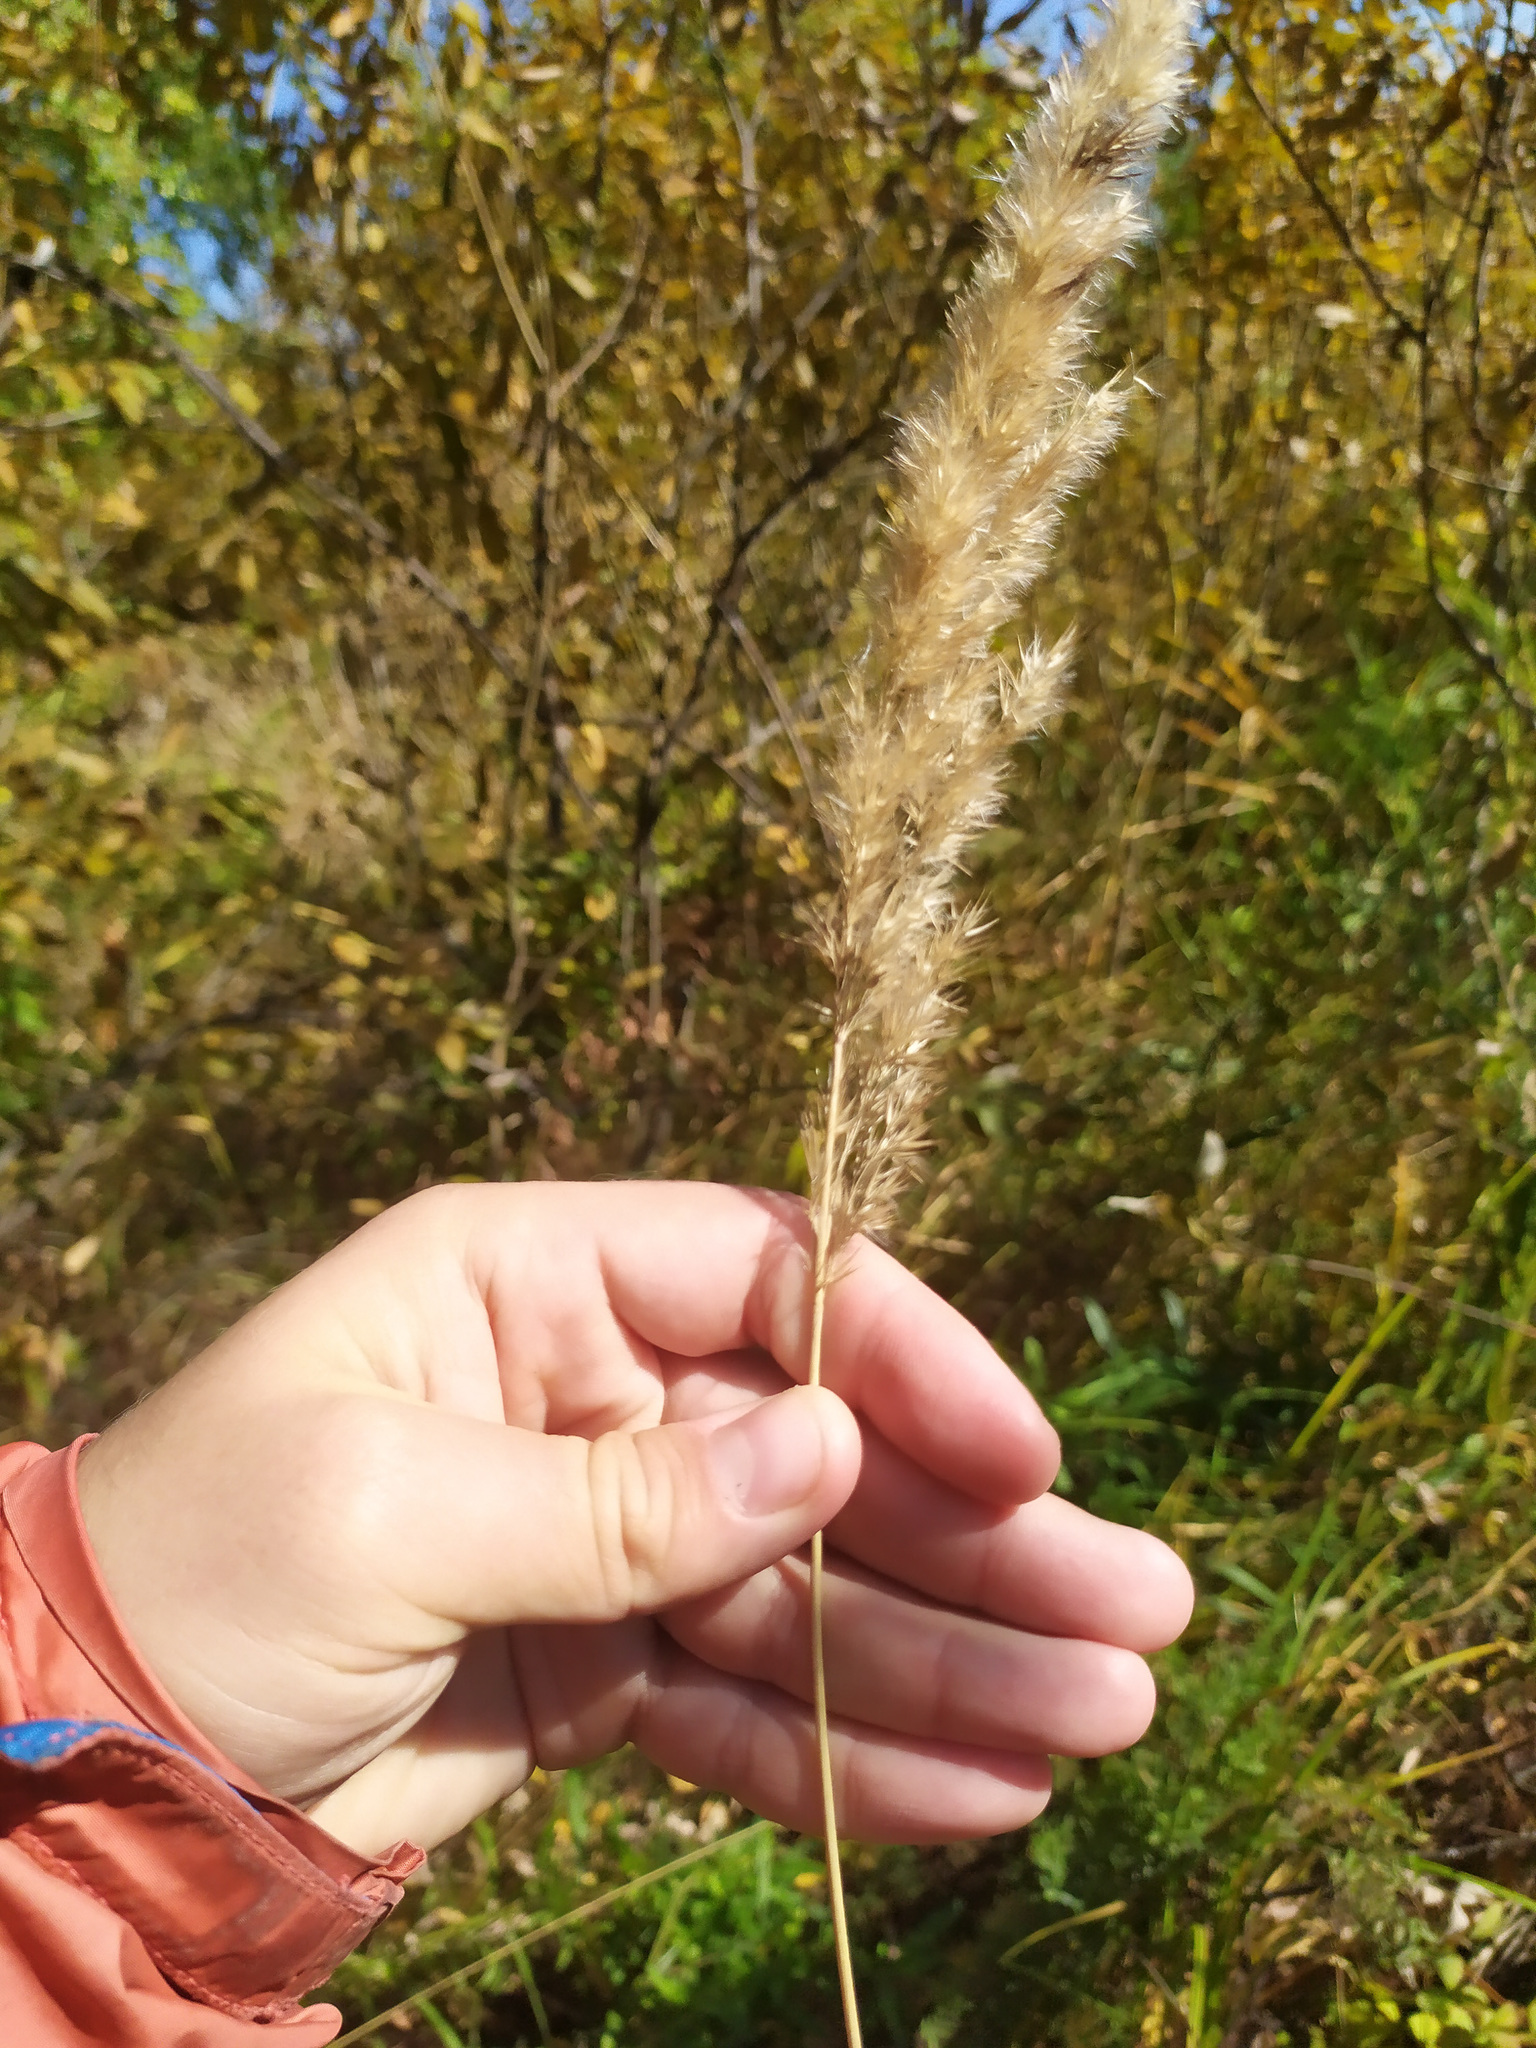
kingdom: Plantae
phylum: Tracheophyta
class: Liliopsida
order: Poales
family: Poaceae
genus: Calamagrostis
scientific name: Calamagrostis epigejos
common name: Wood small-reed
